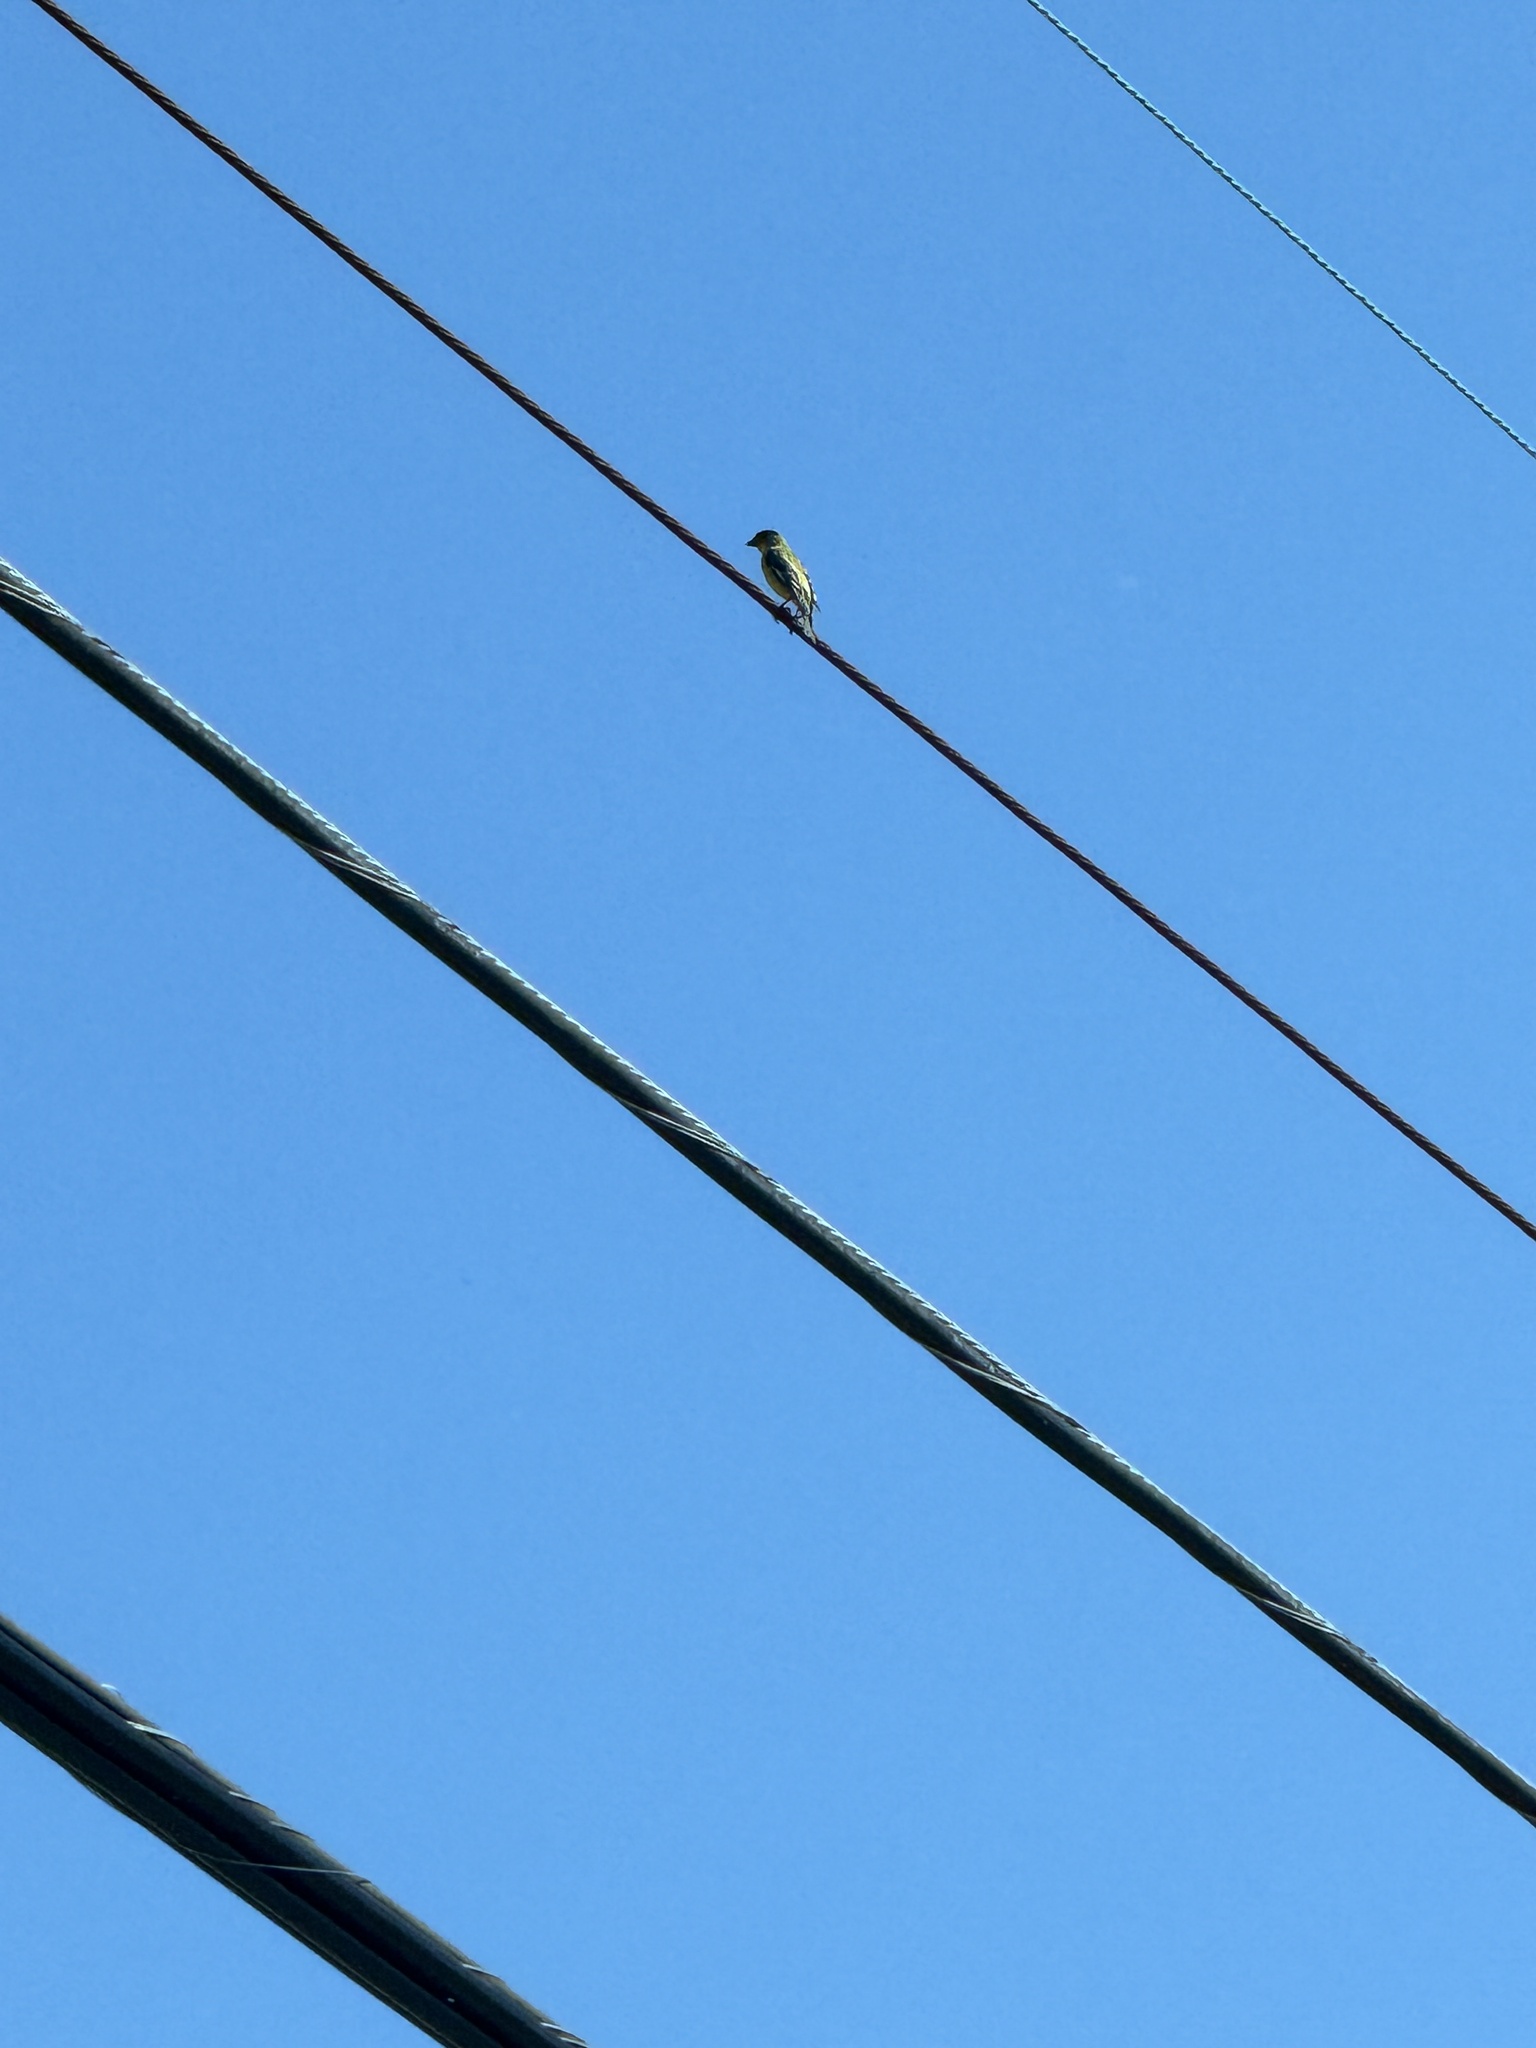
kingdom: Animalia
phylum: Chordata
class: Aves
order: Passeriformes
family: Fringillidae
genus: Spinus
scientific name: Spinus psaltria
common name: Lesser goldfinch
